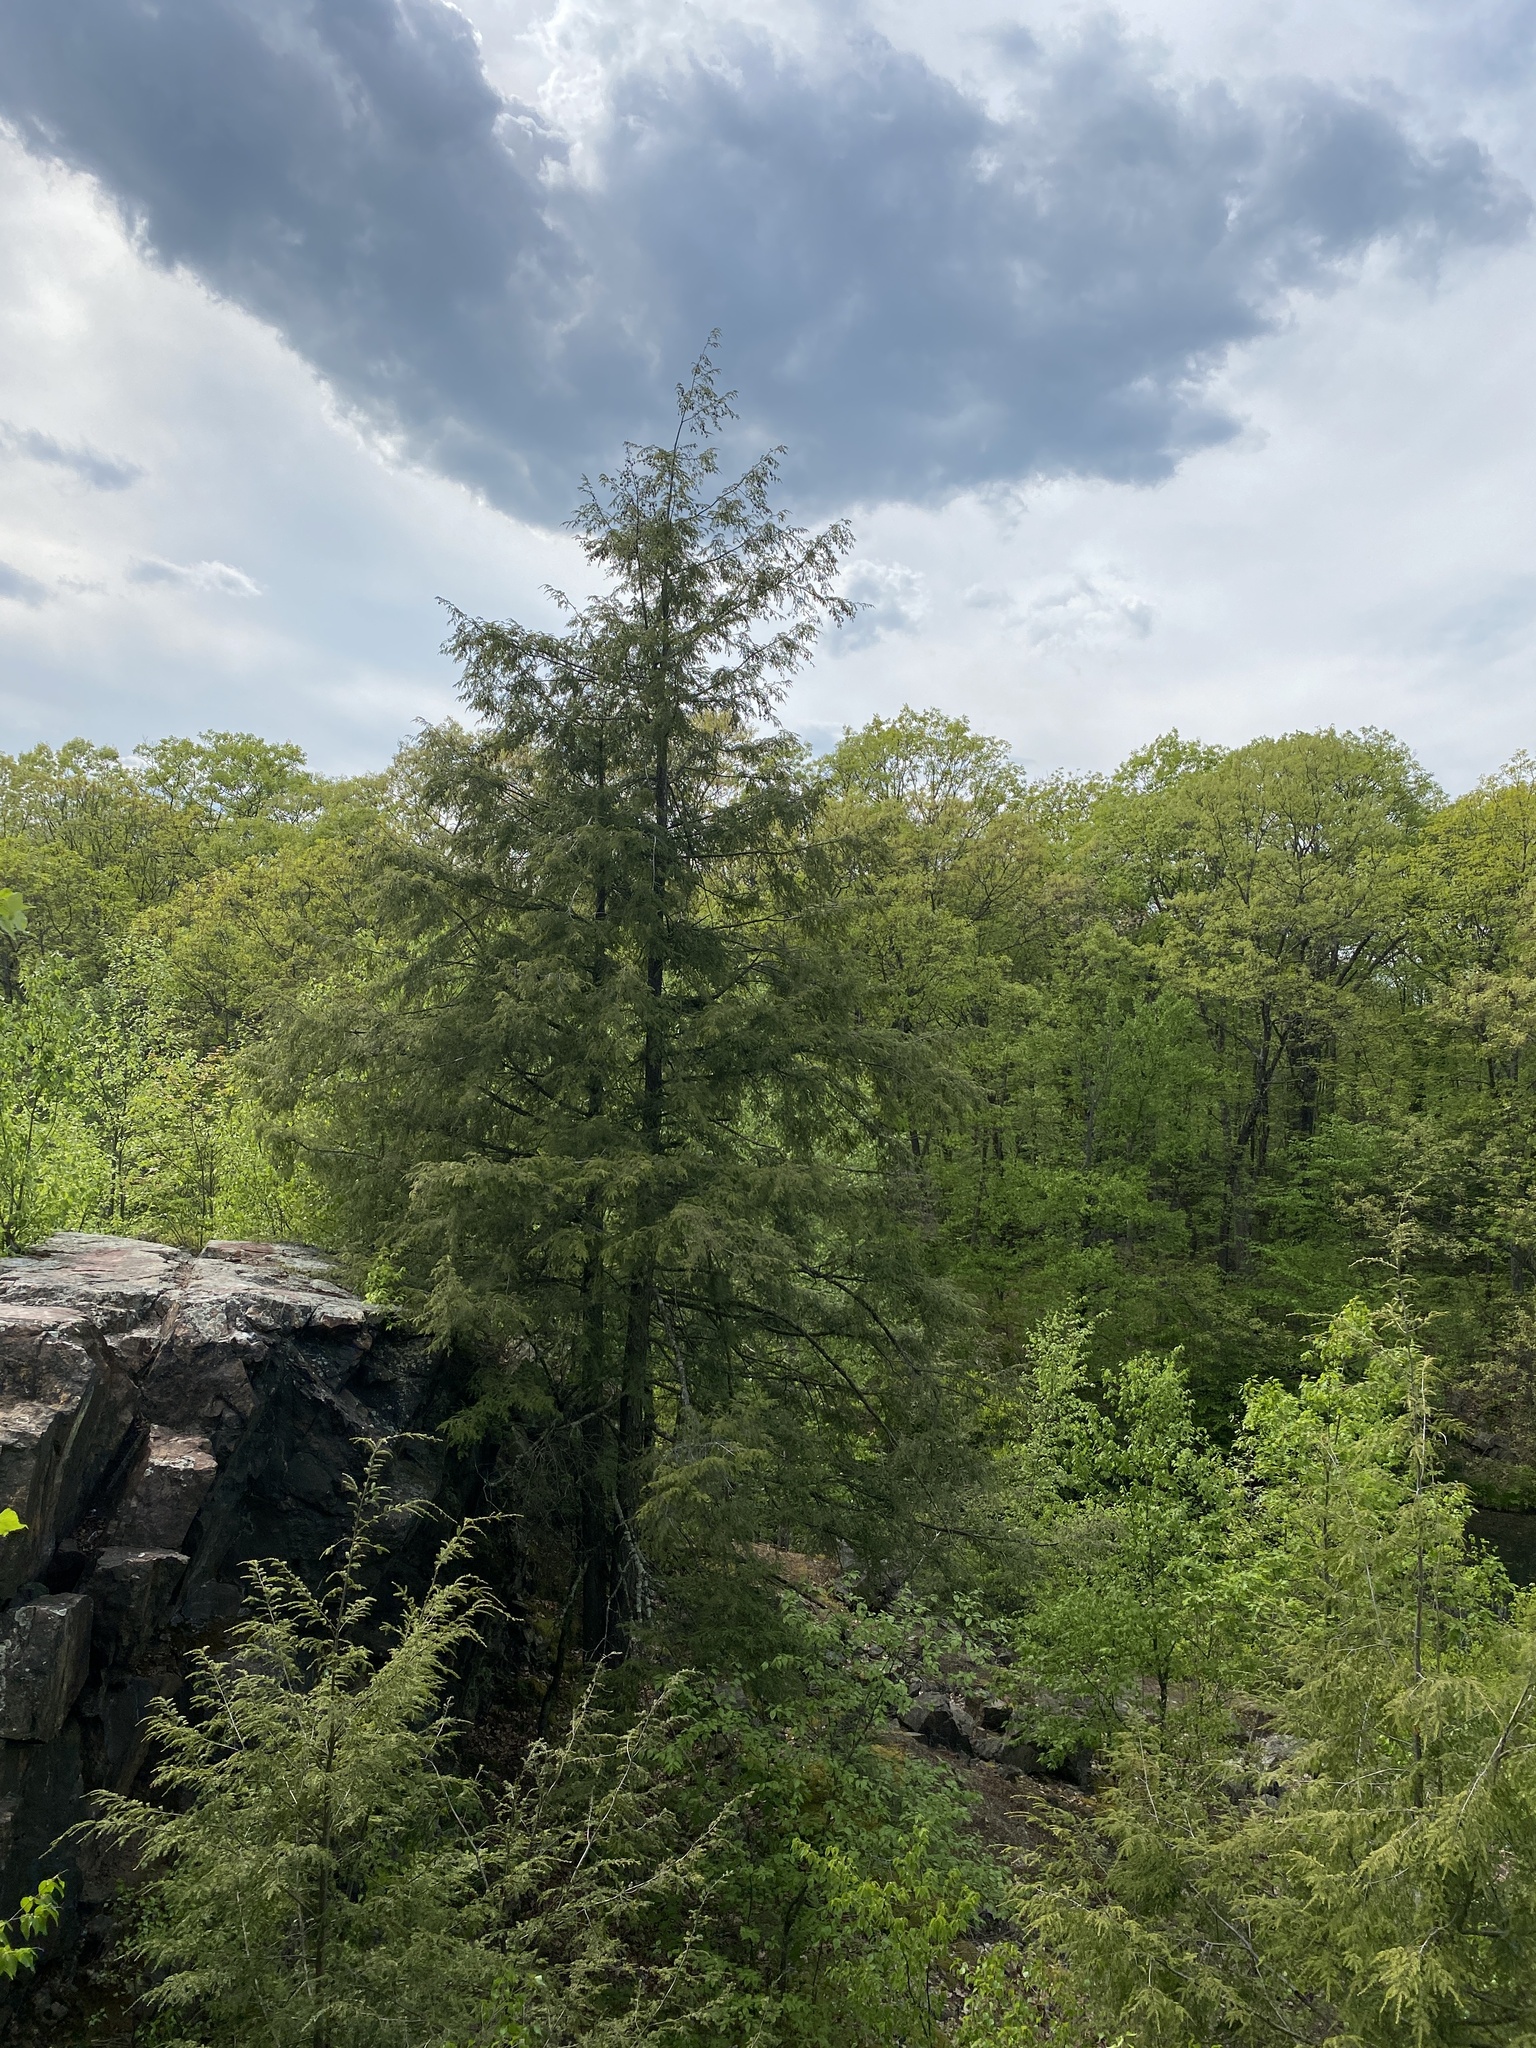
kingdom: Plantae
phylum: Tracheophyta
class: Pinopsida
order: Pinales
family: Pinaceae
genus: Tsuga
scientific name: Tsuga canadensis
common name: Eastern hemlock
